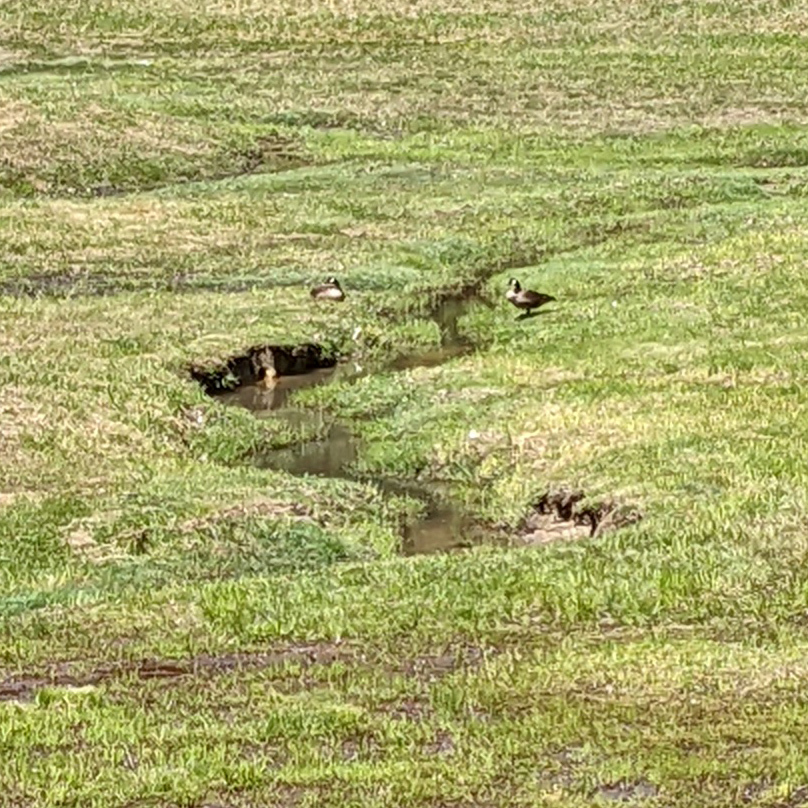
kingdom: Animalia
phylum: Chordata
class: Aves
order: Anseriformes
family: Anatidae
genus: Branta
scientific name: Branta canadensis
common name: Canada goose
